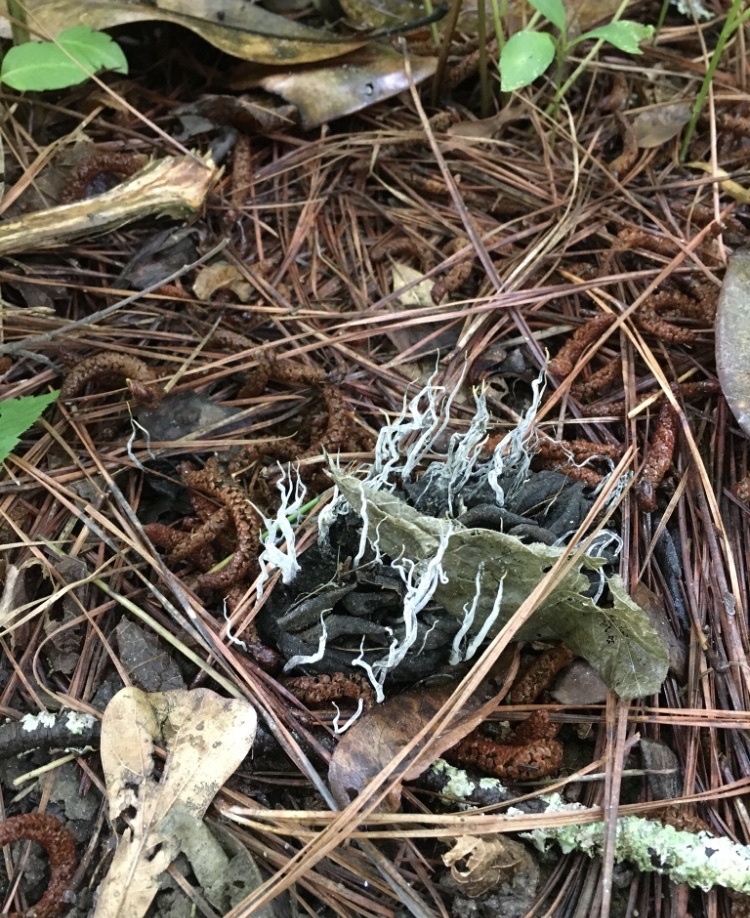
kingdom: Fungi
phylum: Ascomycota
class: Sordariomycetes
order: Xylariales
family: Xylariaceae
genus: Xylaria
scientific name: Xylaria magnoliae
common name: Magnolia-cone xylaria
